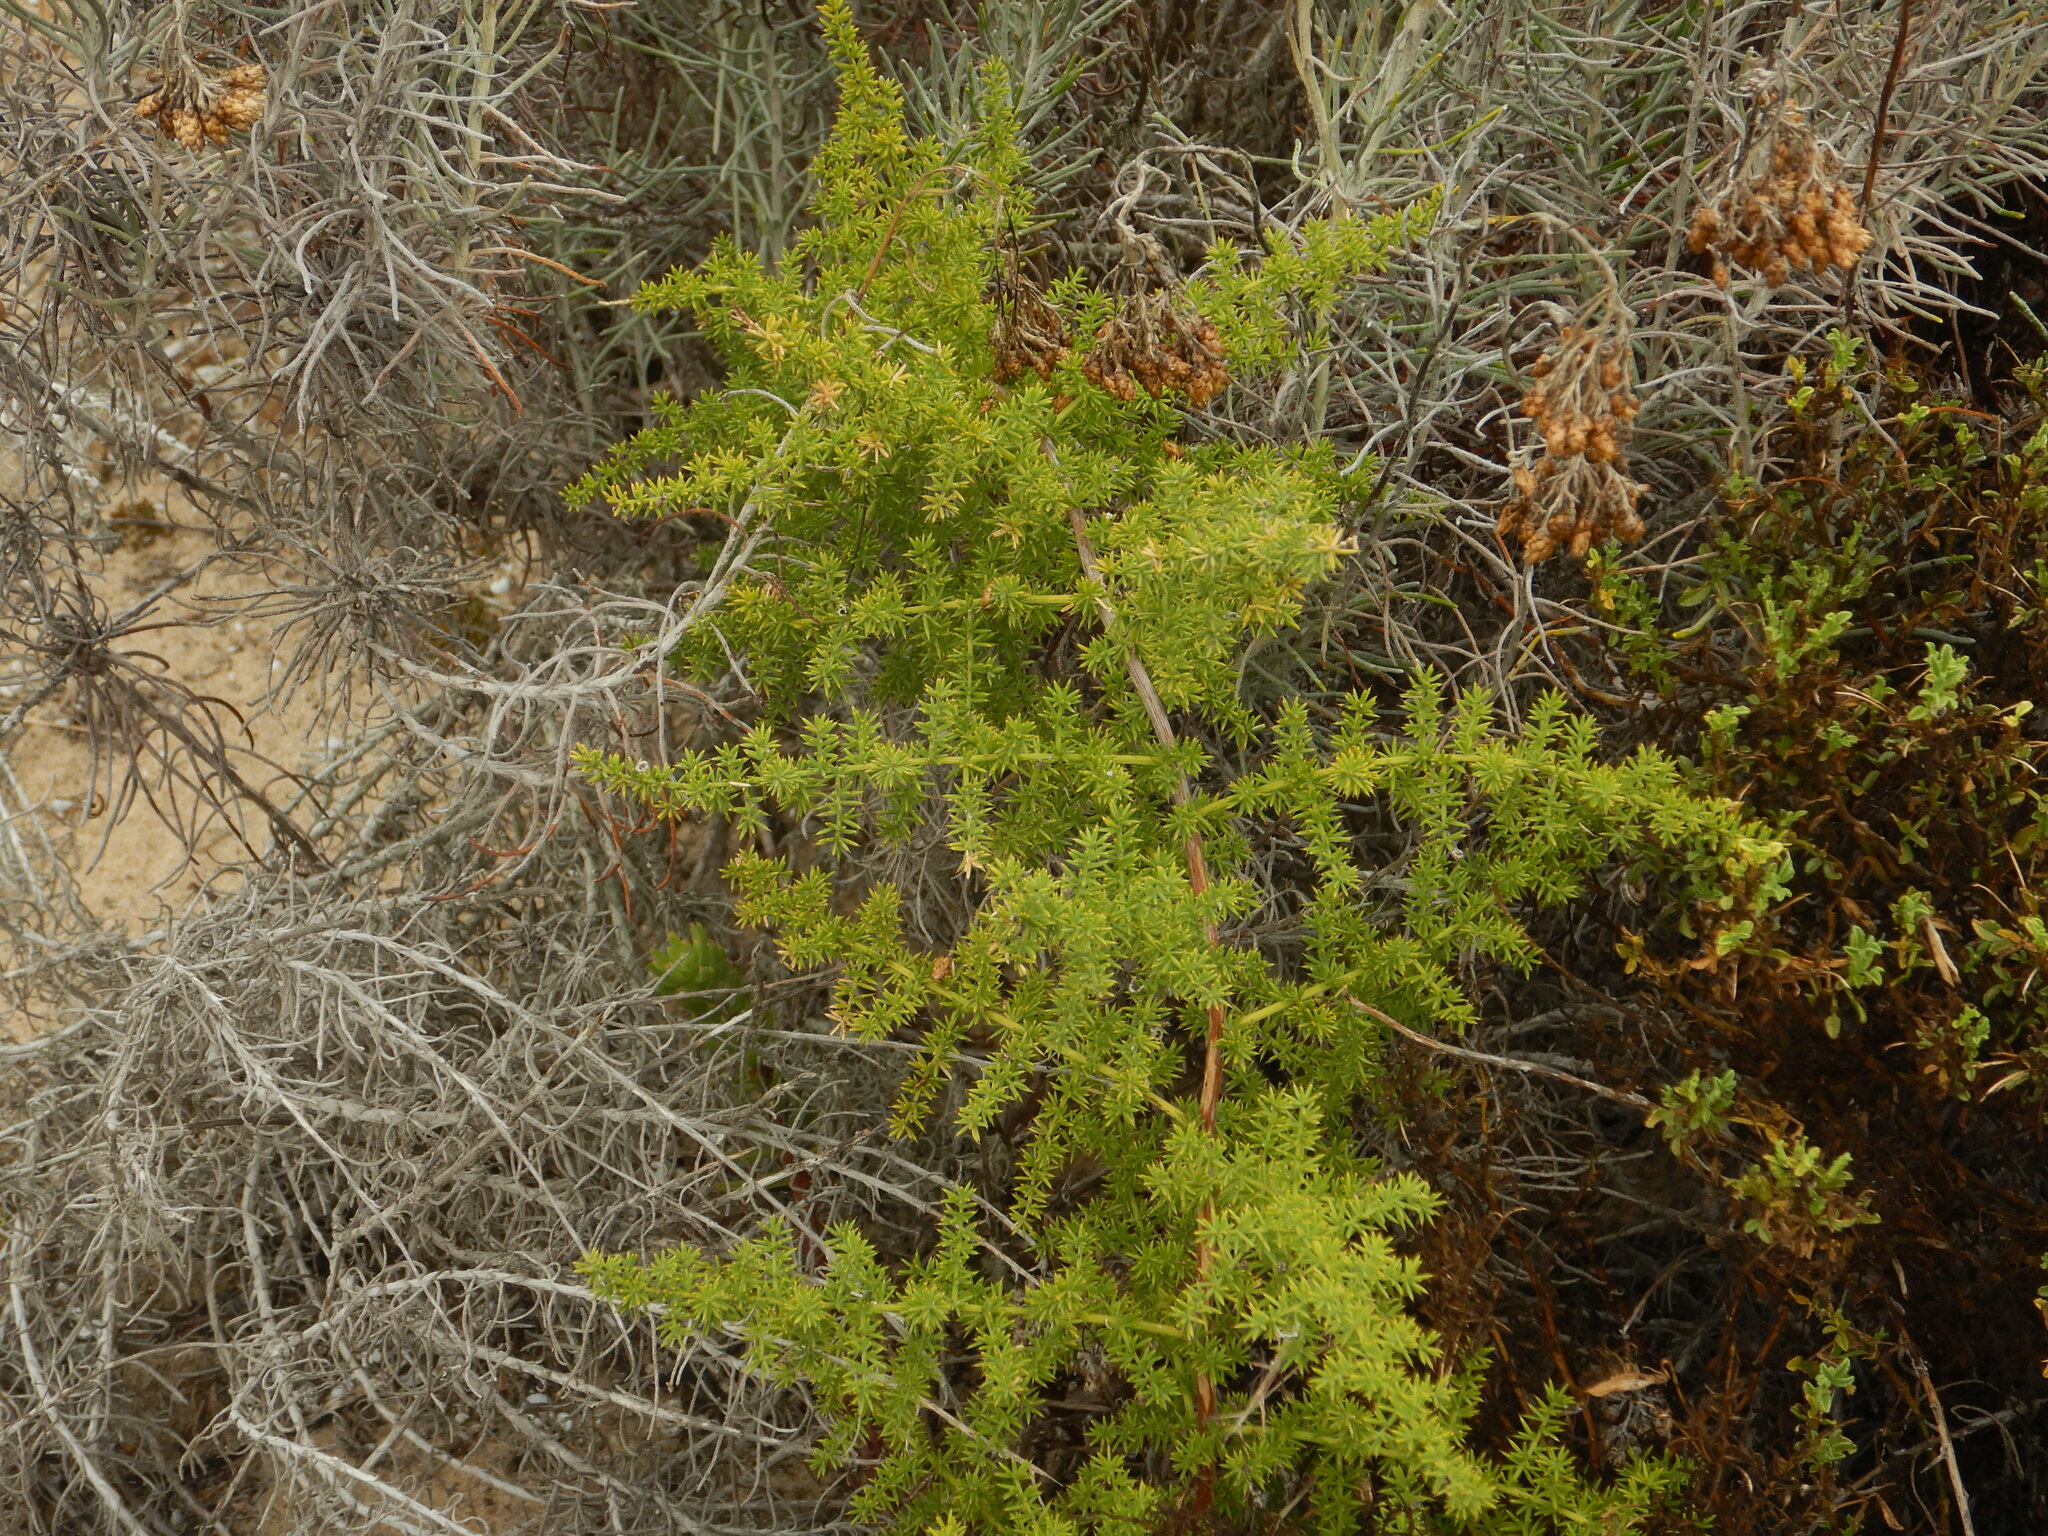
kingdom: Plantae
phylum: Tracheophyta
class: Liliopsida
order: Asparagales
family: Asparagaceae
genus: Asparagus
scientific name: Asparagus acutifolius
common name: Wild asparagus
